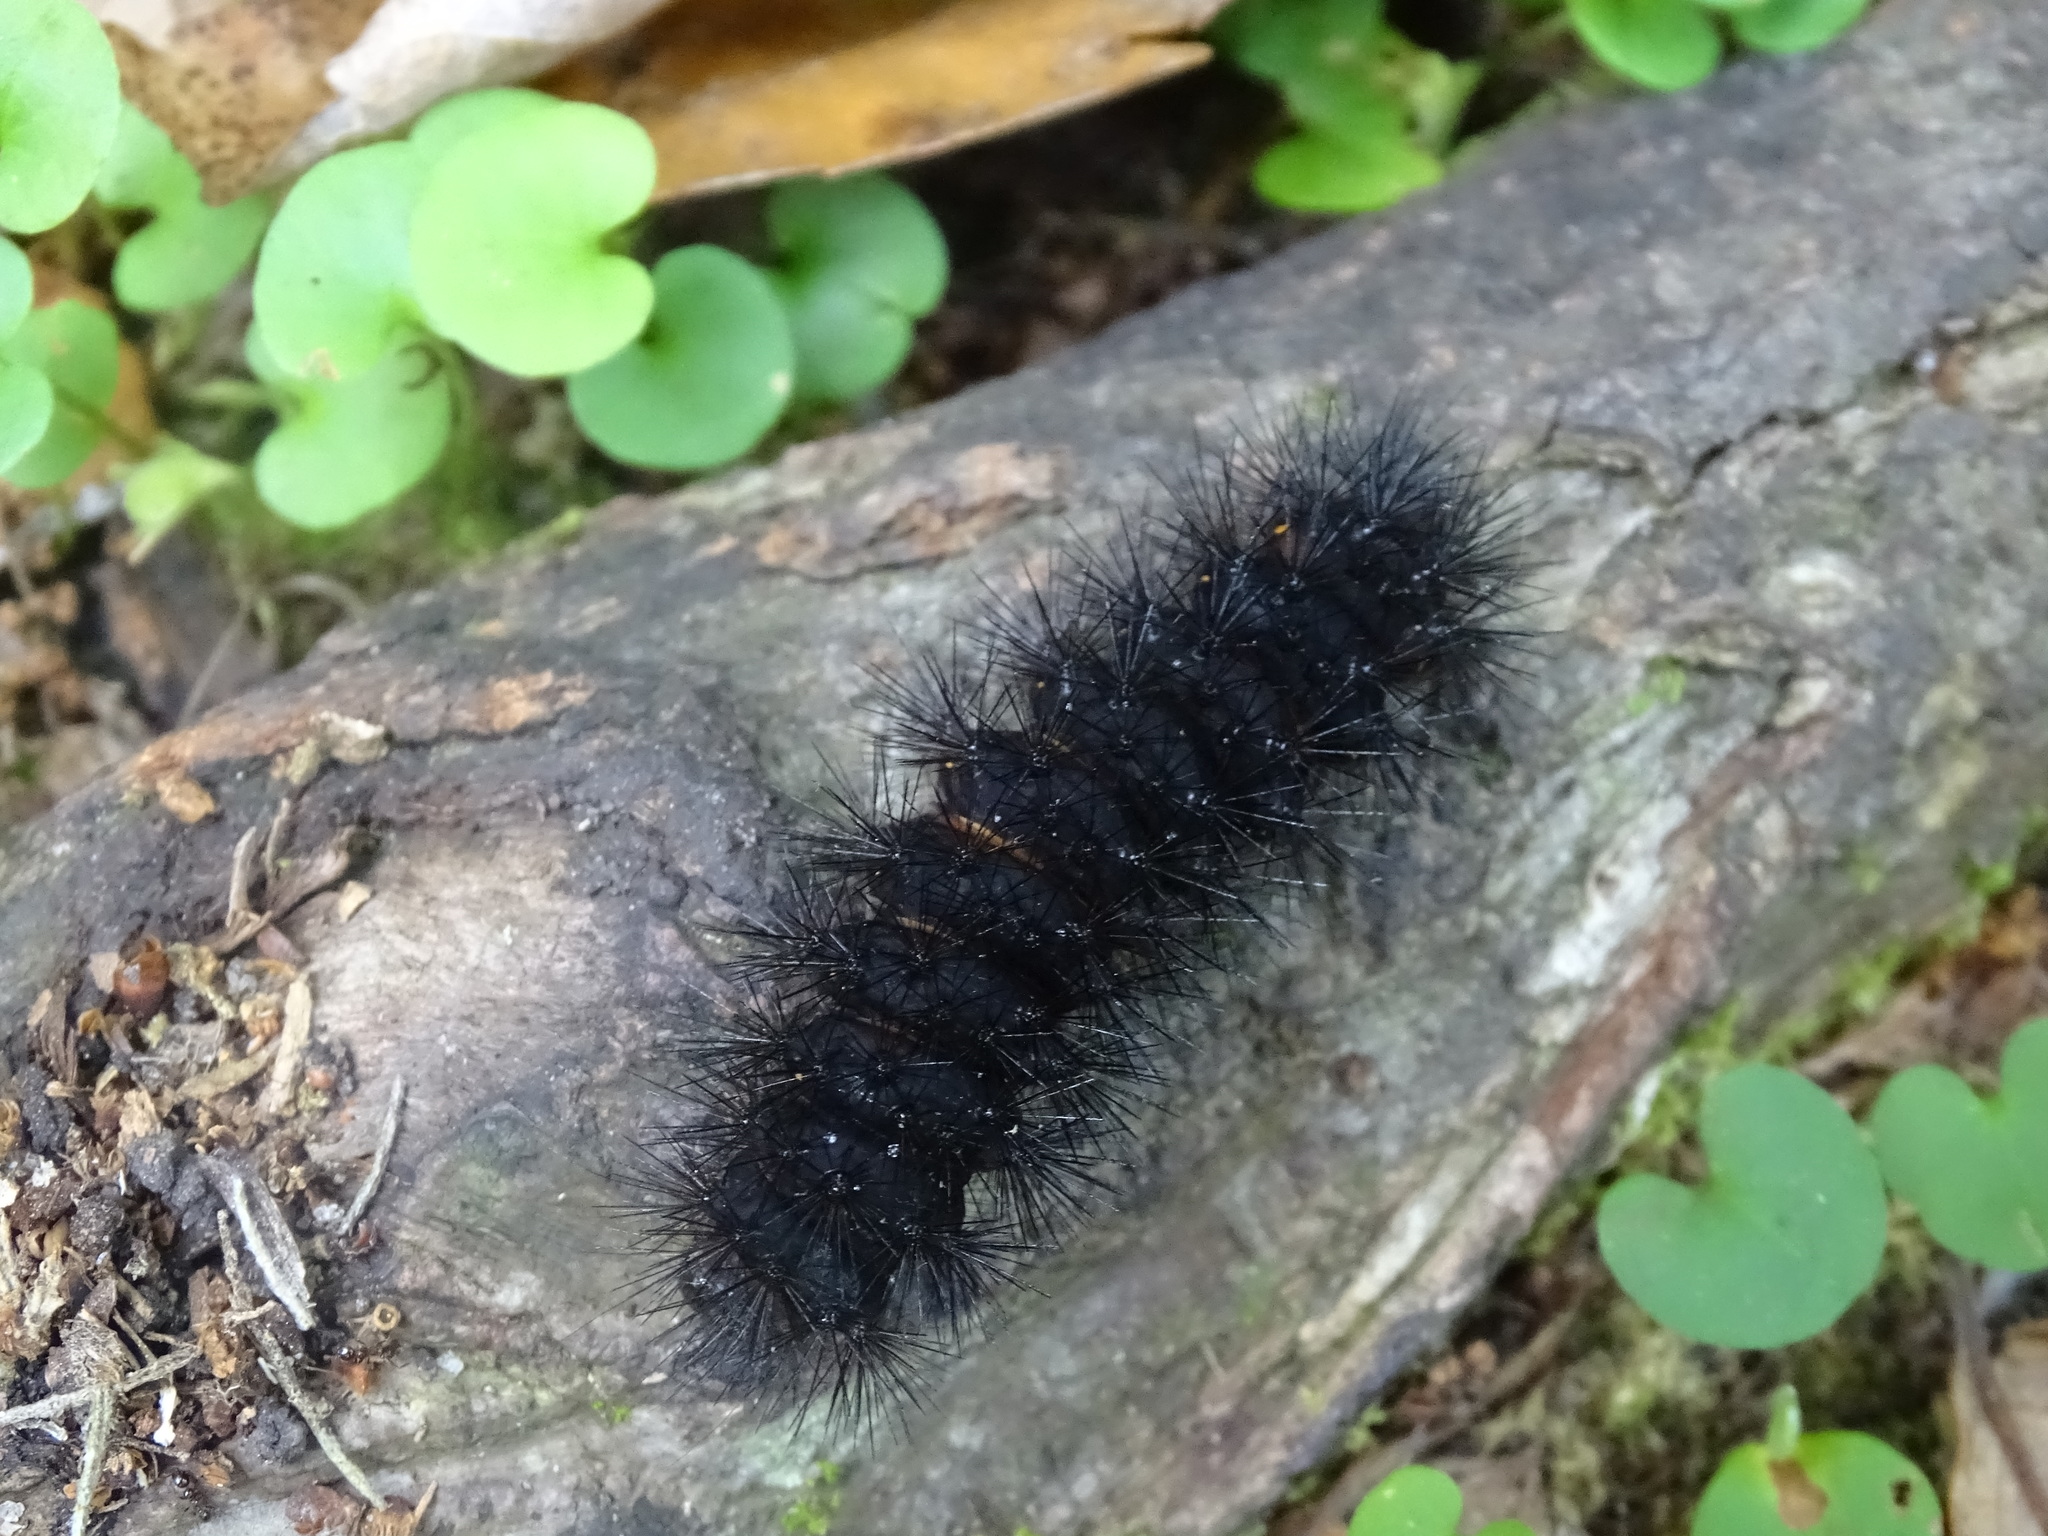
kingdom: Animalia
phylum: Arthropoda
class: Insecta
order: Lepidoptera
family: Erebidae
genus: Hypercompe
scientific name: Hypercompe scribonia
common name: Giant leopard moth
